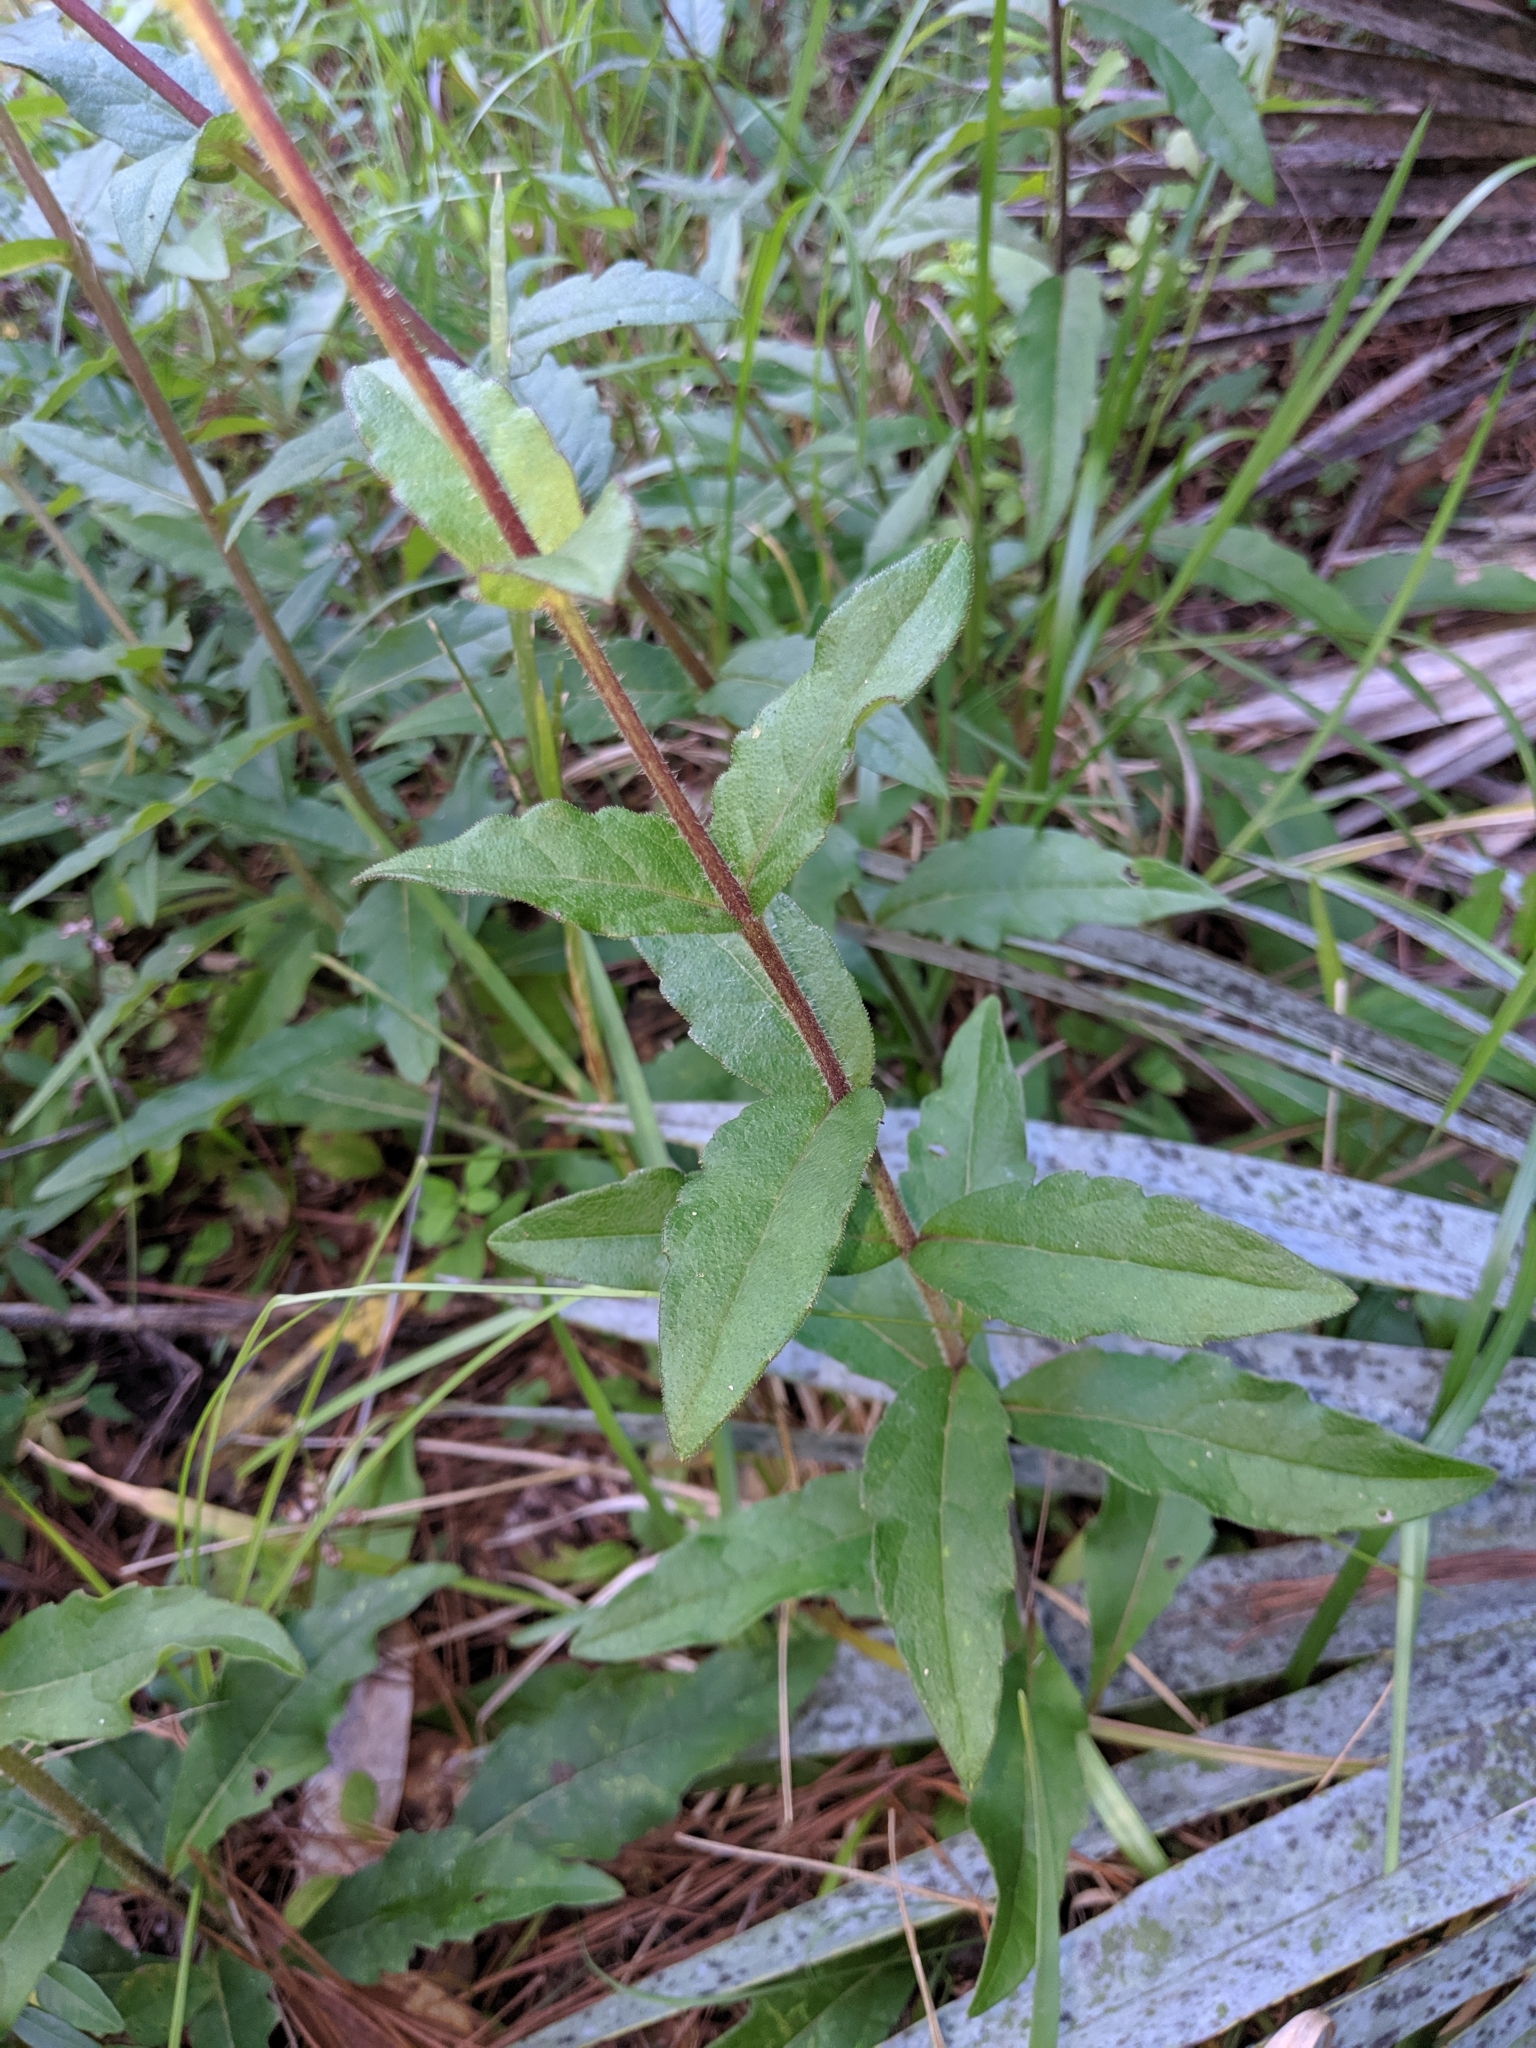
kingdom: Plantae
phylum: Tracheophyta
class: Magnoliopsida
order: Asterales
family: Asteraceae
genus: Silphium
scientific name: Silphium asteriscus
